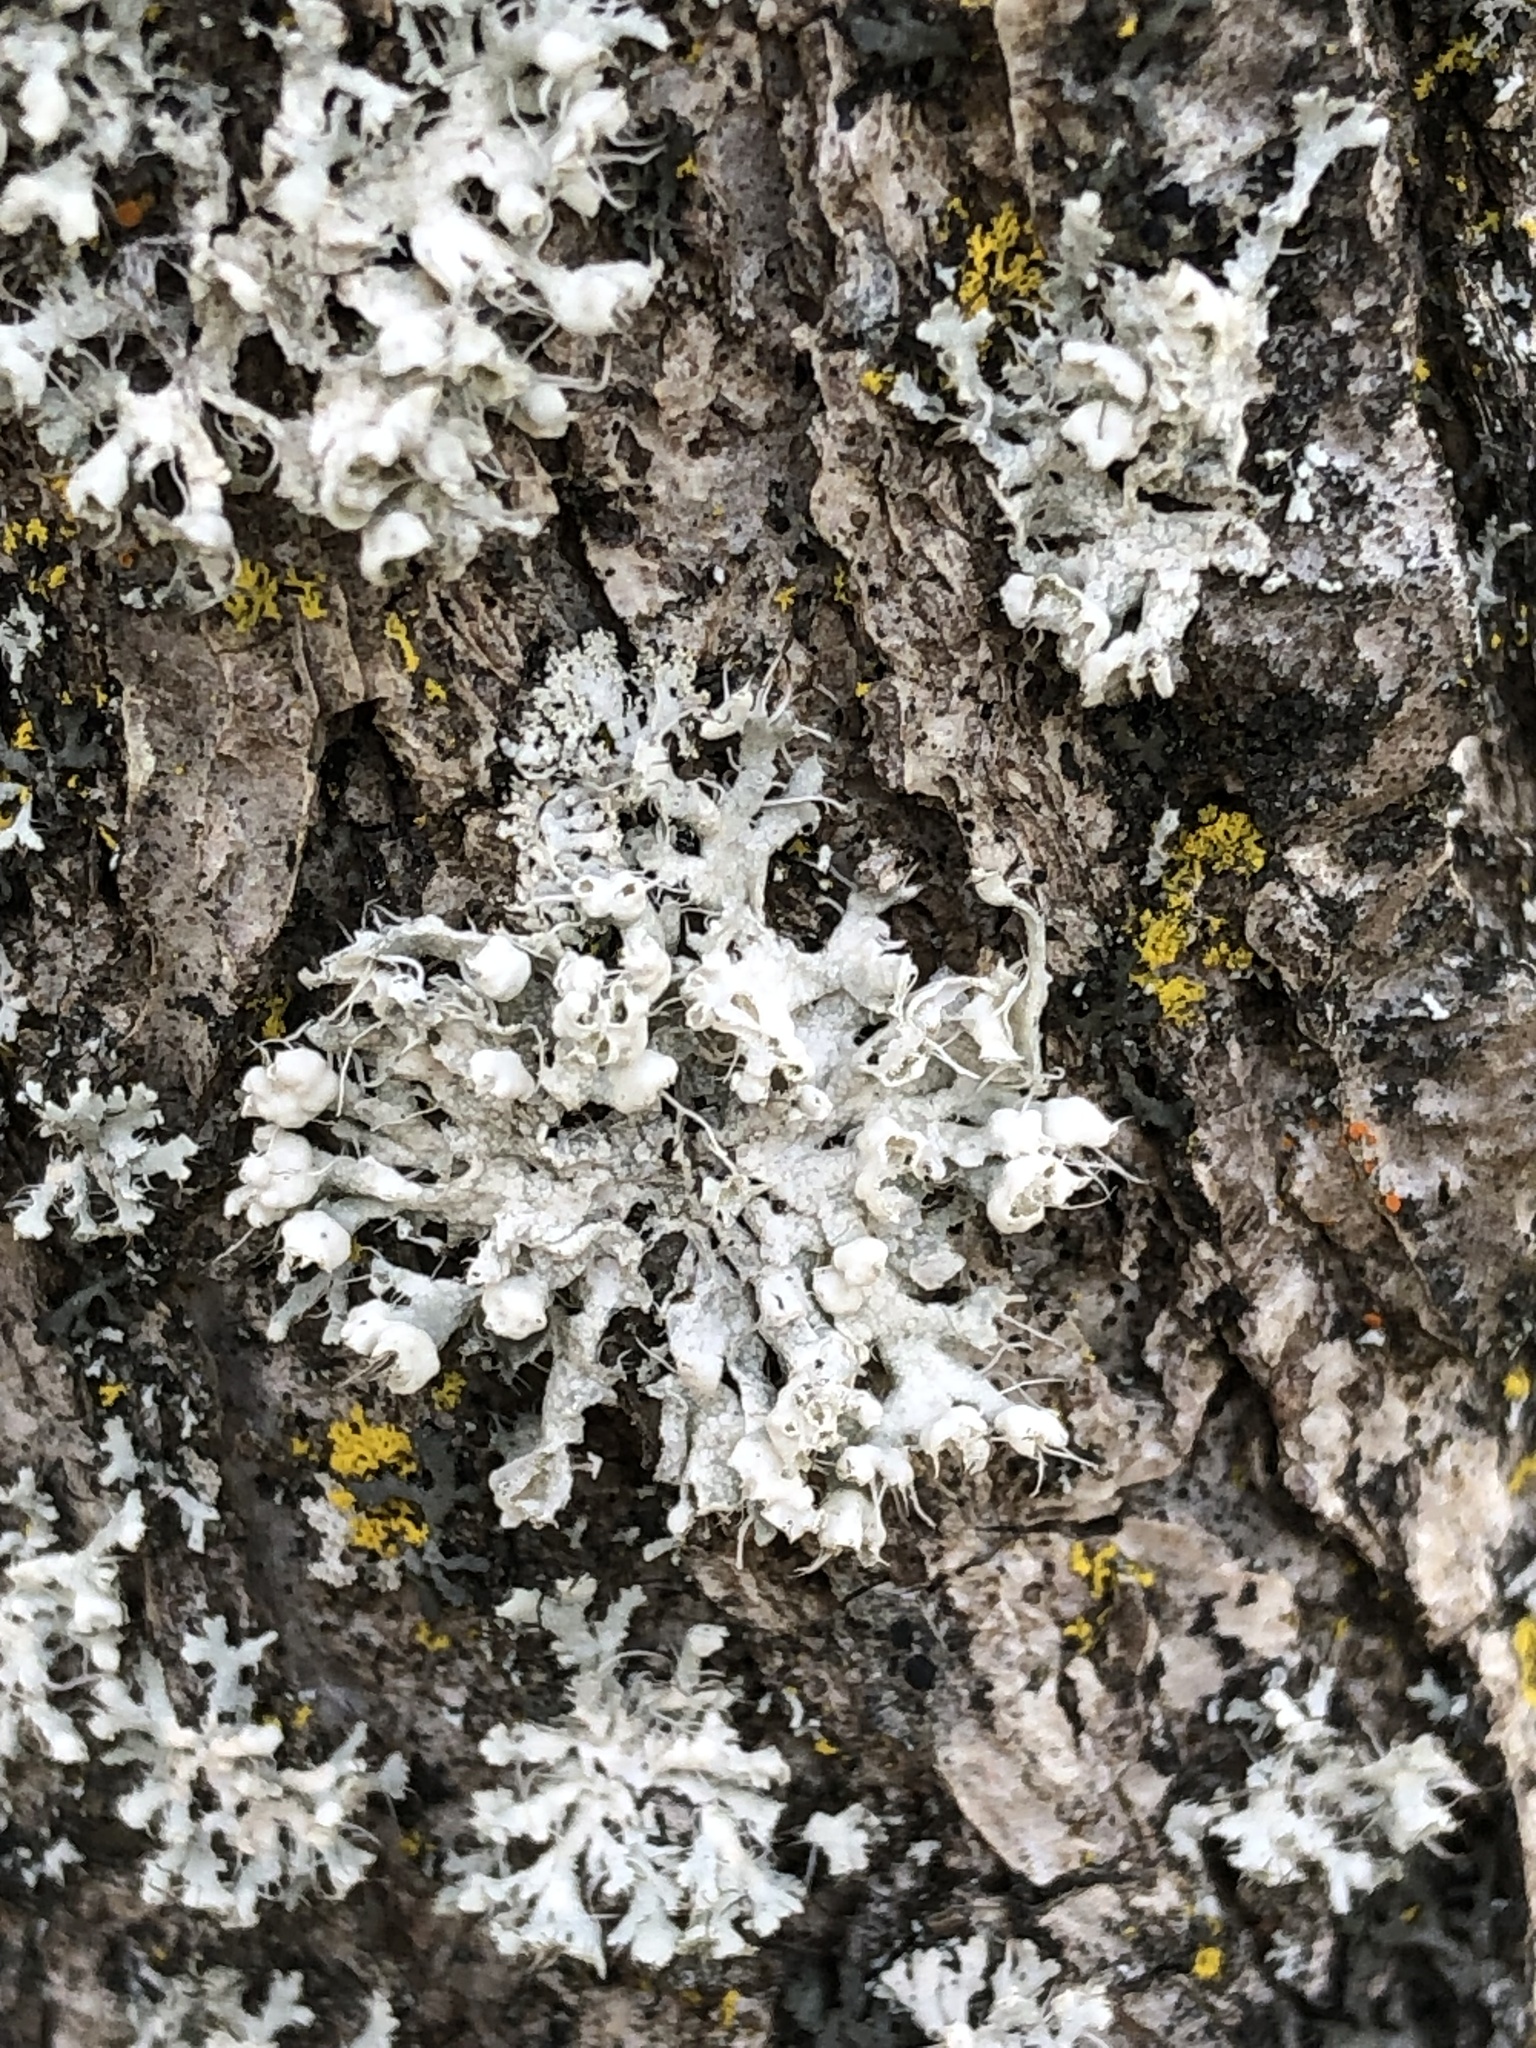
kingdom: Fungi
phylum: Ascomycota
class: Lecanoromycetes
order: Caliciales
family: Physciaceae
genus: Physcia
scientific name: Physcia adscendens
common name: Hooded rosette lichen
